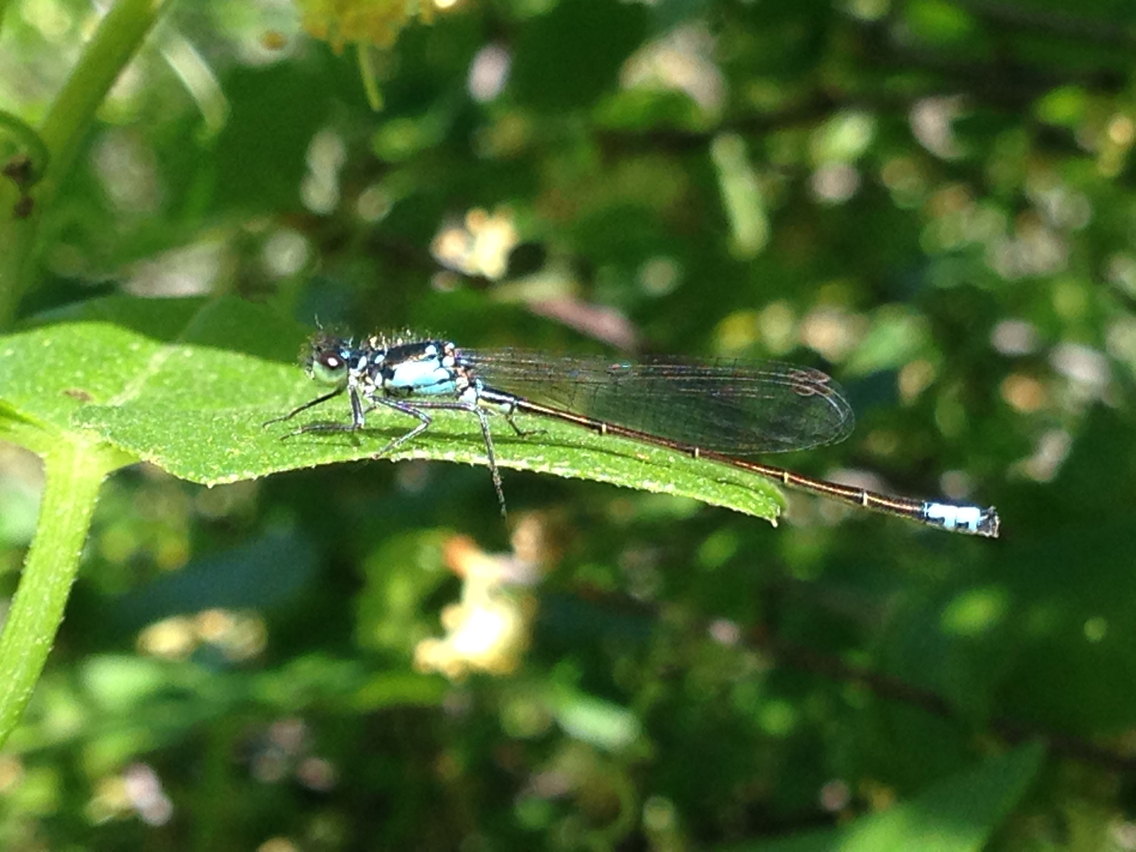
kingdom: Animalia
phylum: Arthropoda
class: Insecta
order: Odonata
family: Coenagrionidae
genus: Ischnura
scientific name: Ischnura cervula
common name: Pacific forktail
